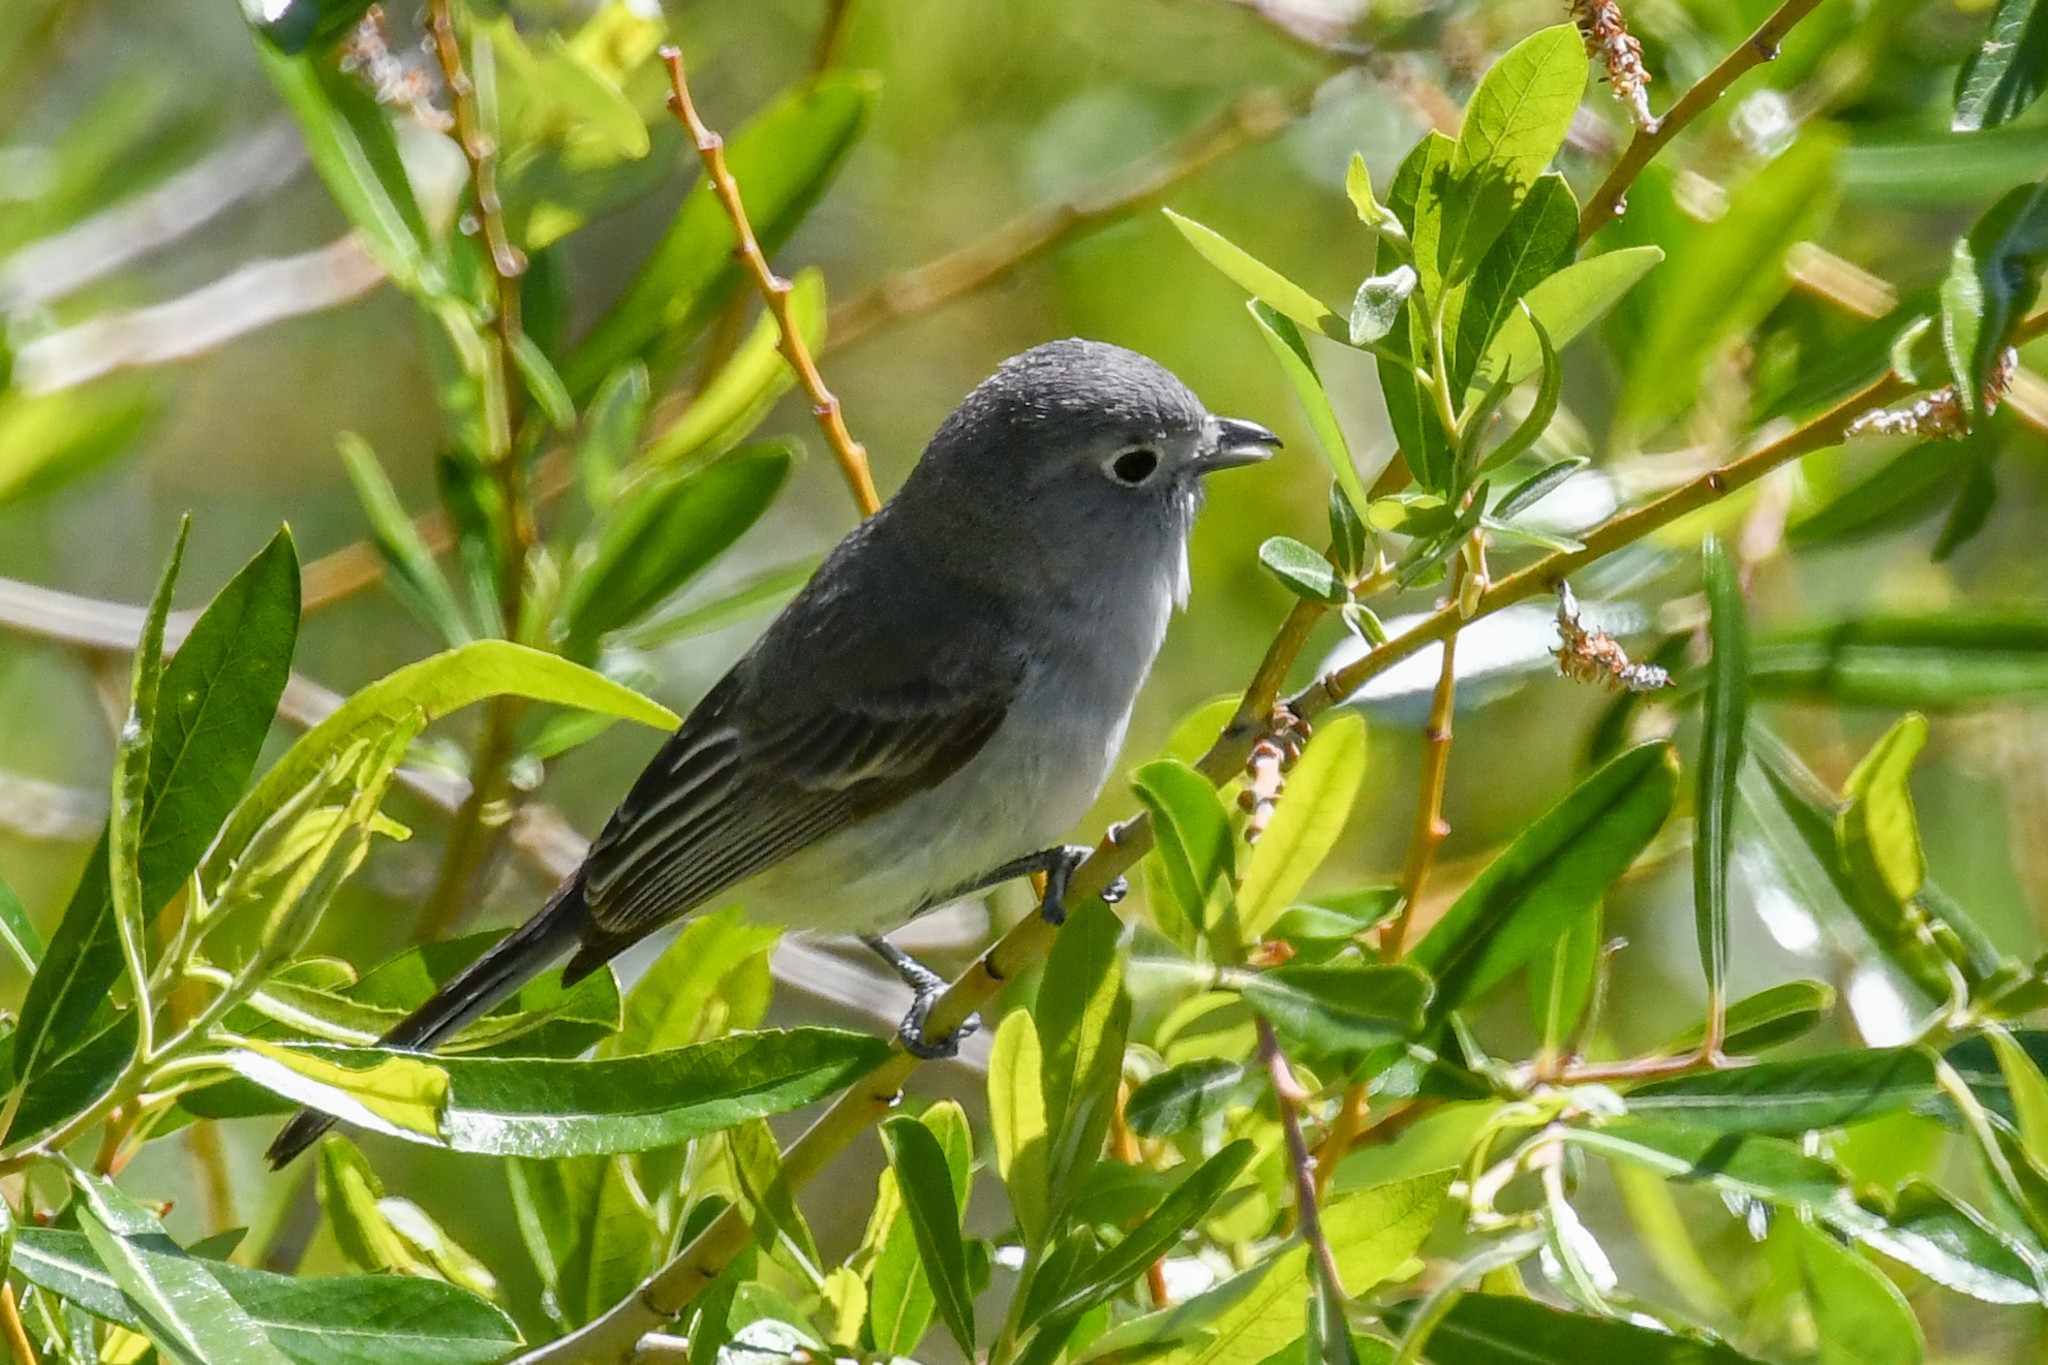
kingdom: Animalia
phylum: Chordata
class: Aves
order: Passeriformes
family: Vireonidae
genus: Vireo
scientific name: Vireo vicinior
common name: Gray vireo
